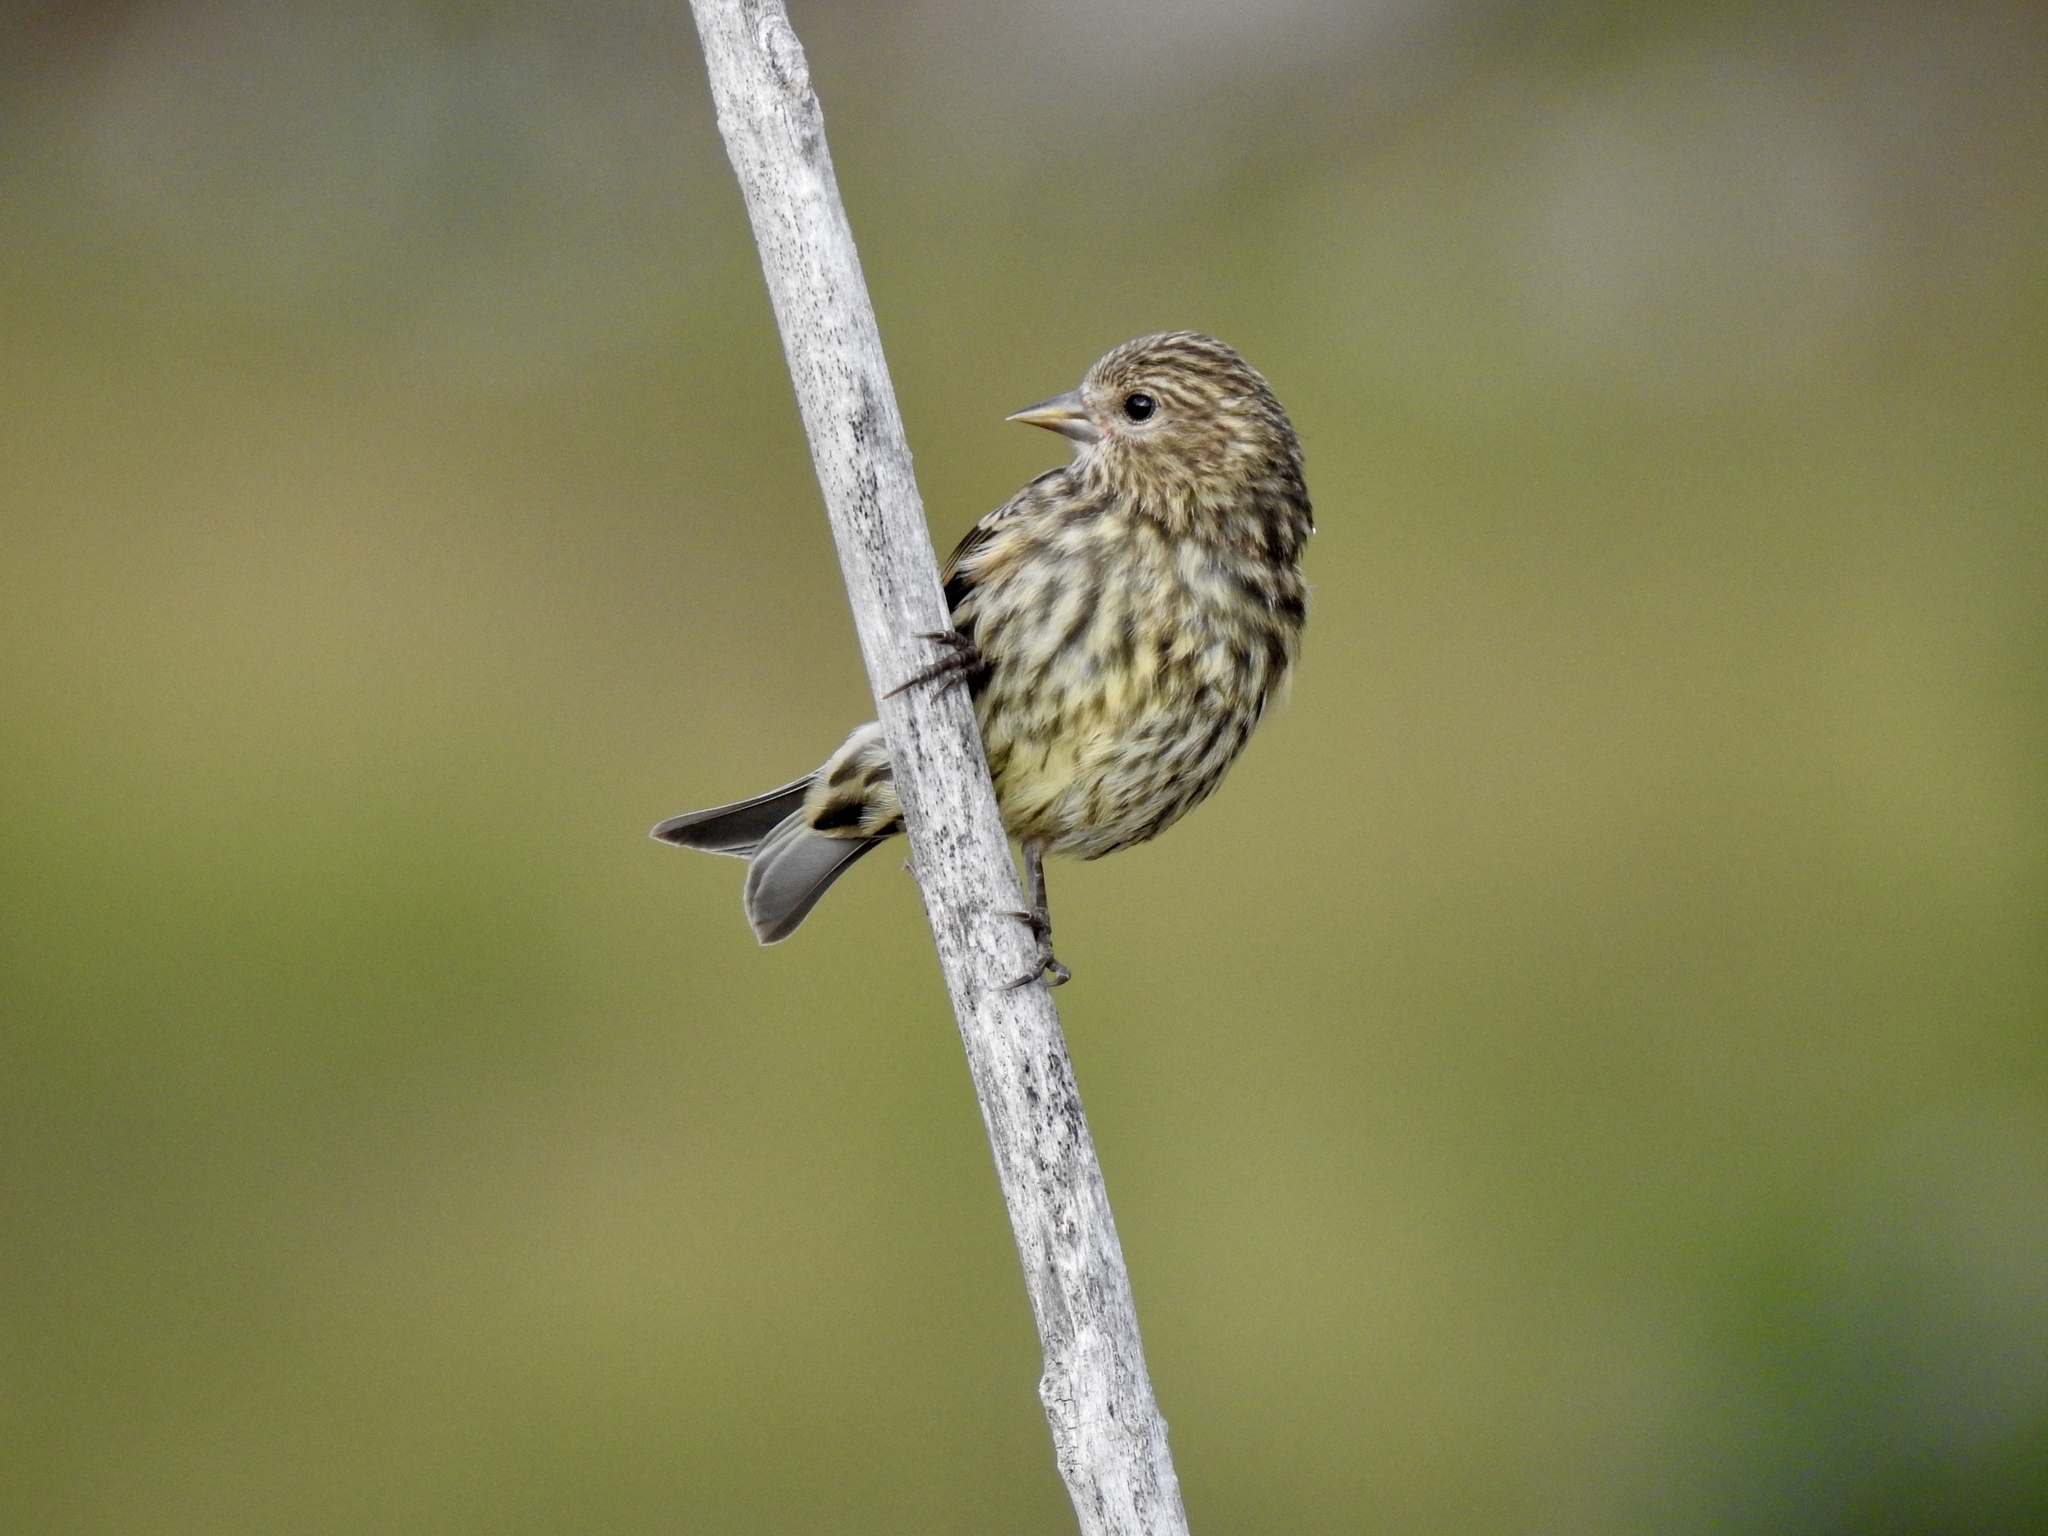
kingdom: Animalia
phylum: Chordata
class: Aves
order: Passeriformes
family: Fringillidae
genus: Spinus
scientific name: Spinus pinus
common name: Pine siskin
